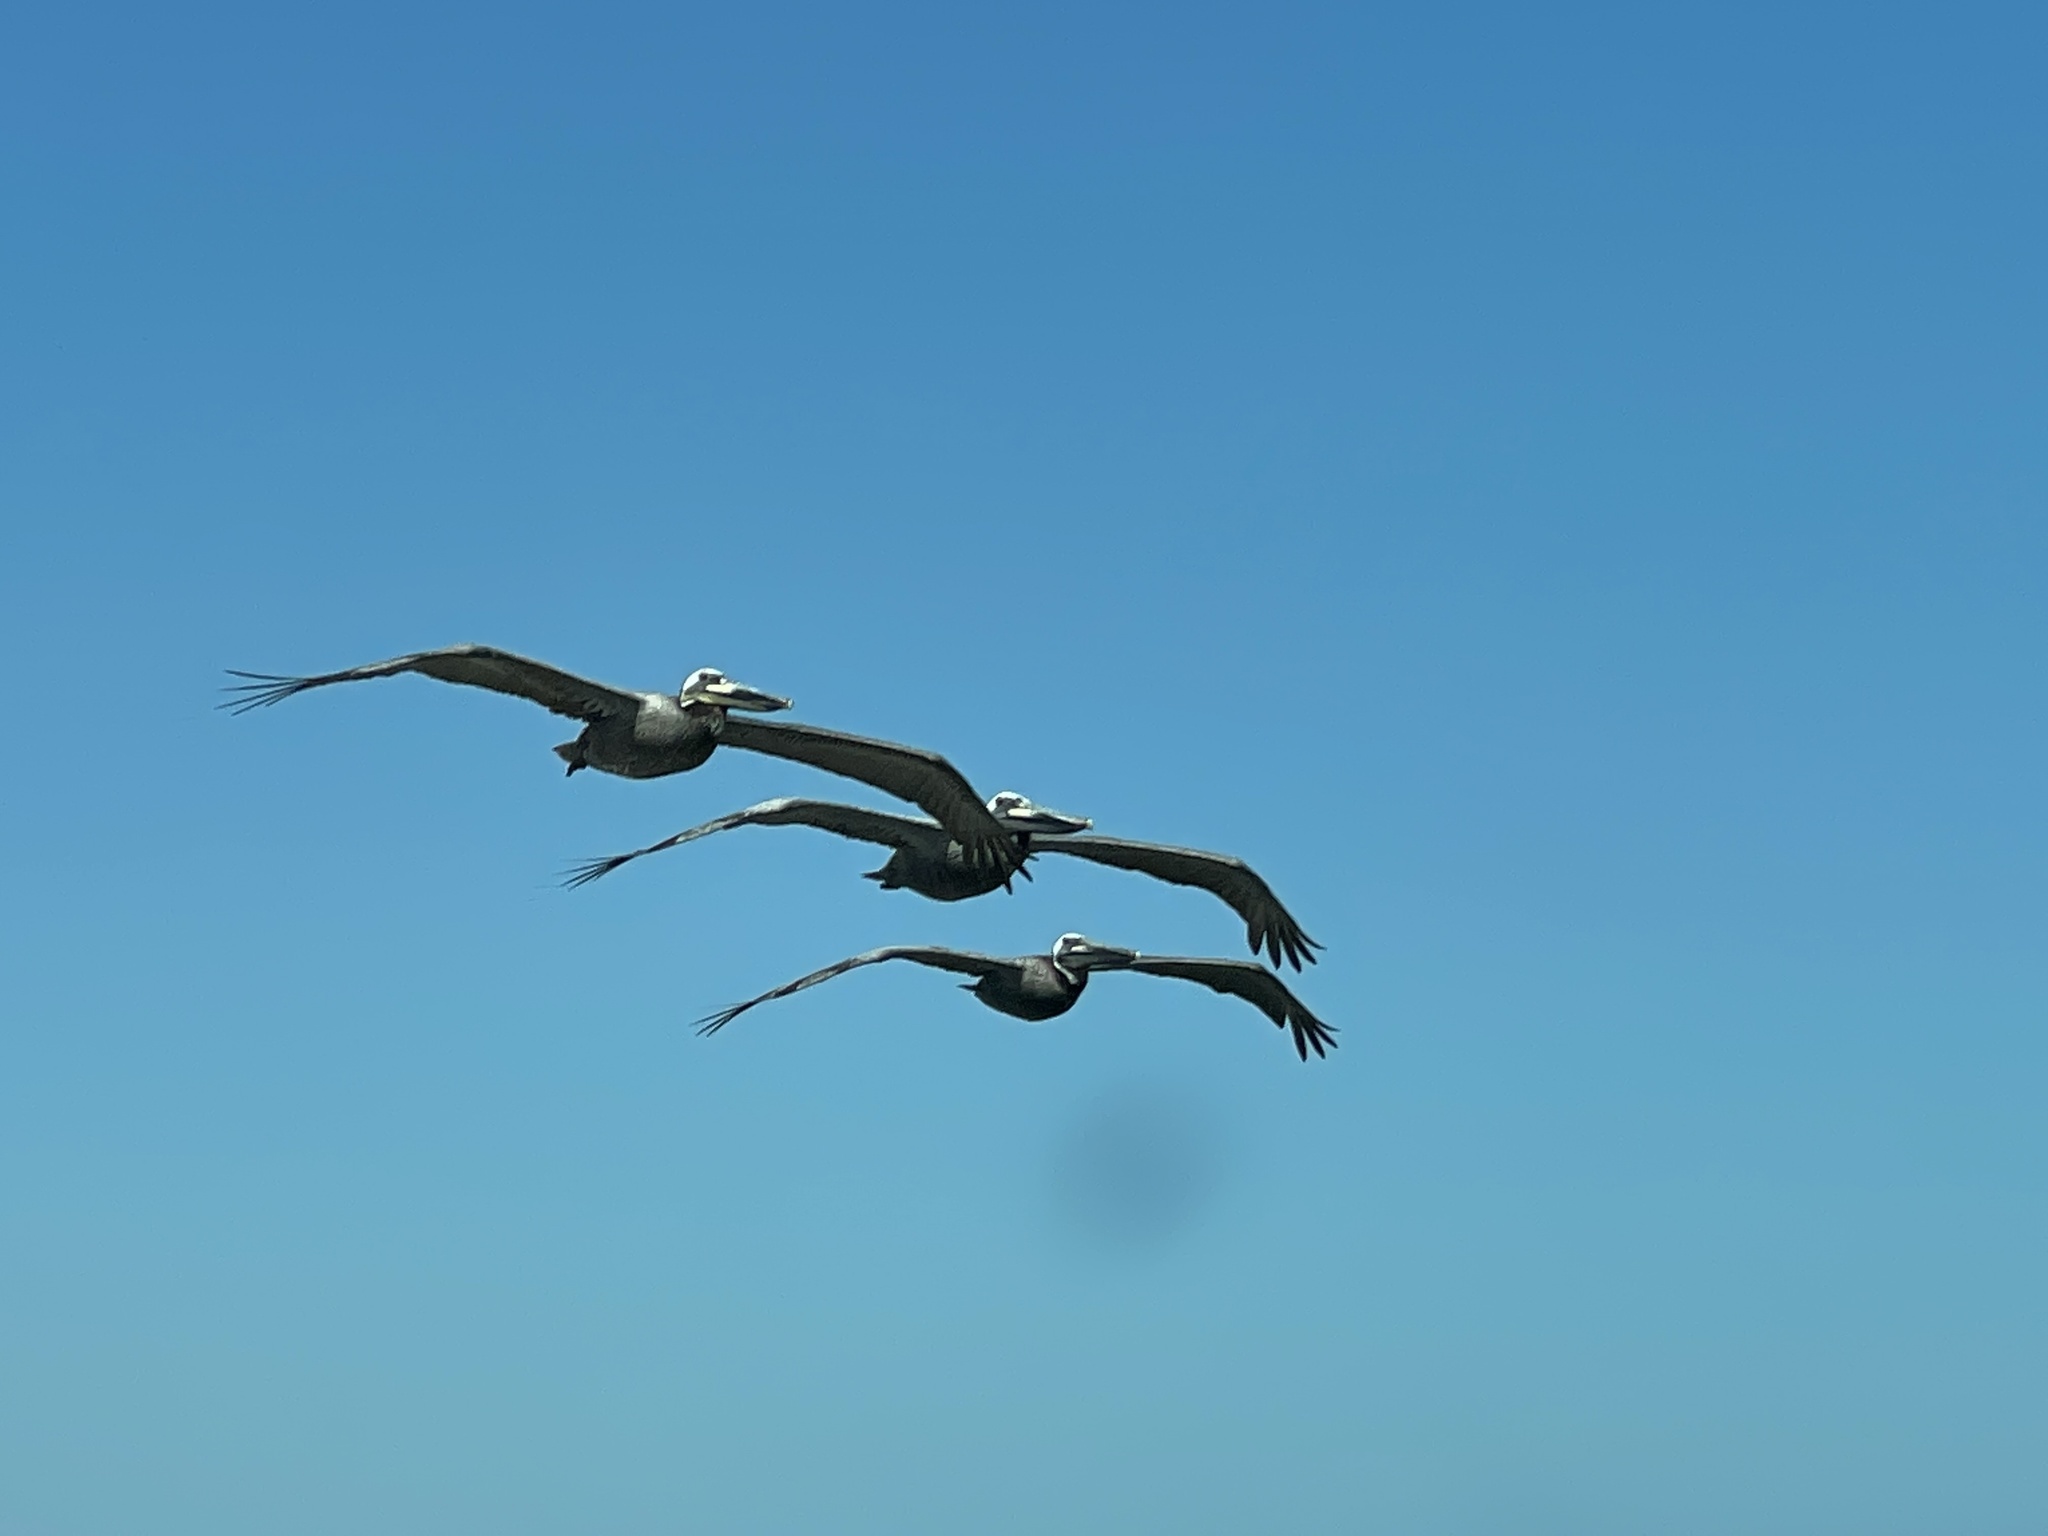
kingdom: Animalia
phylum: Chordata
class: Aves
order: Pelecaniformes
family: Pelecanidae
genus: Pelecanus
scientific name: Pelecanus occidentalis
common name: Brown pelican
